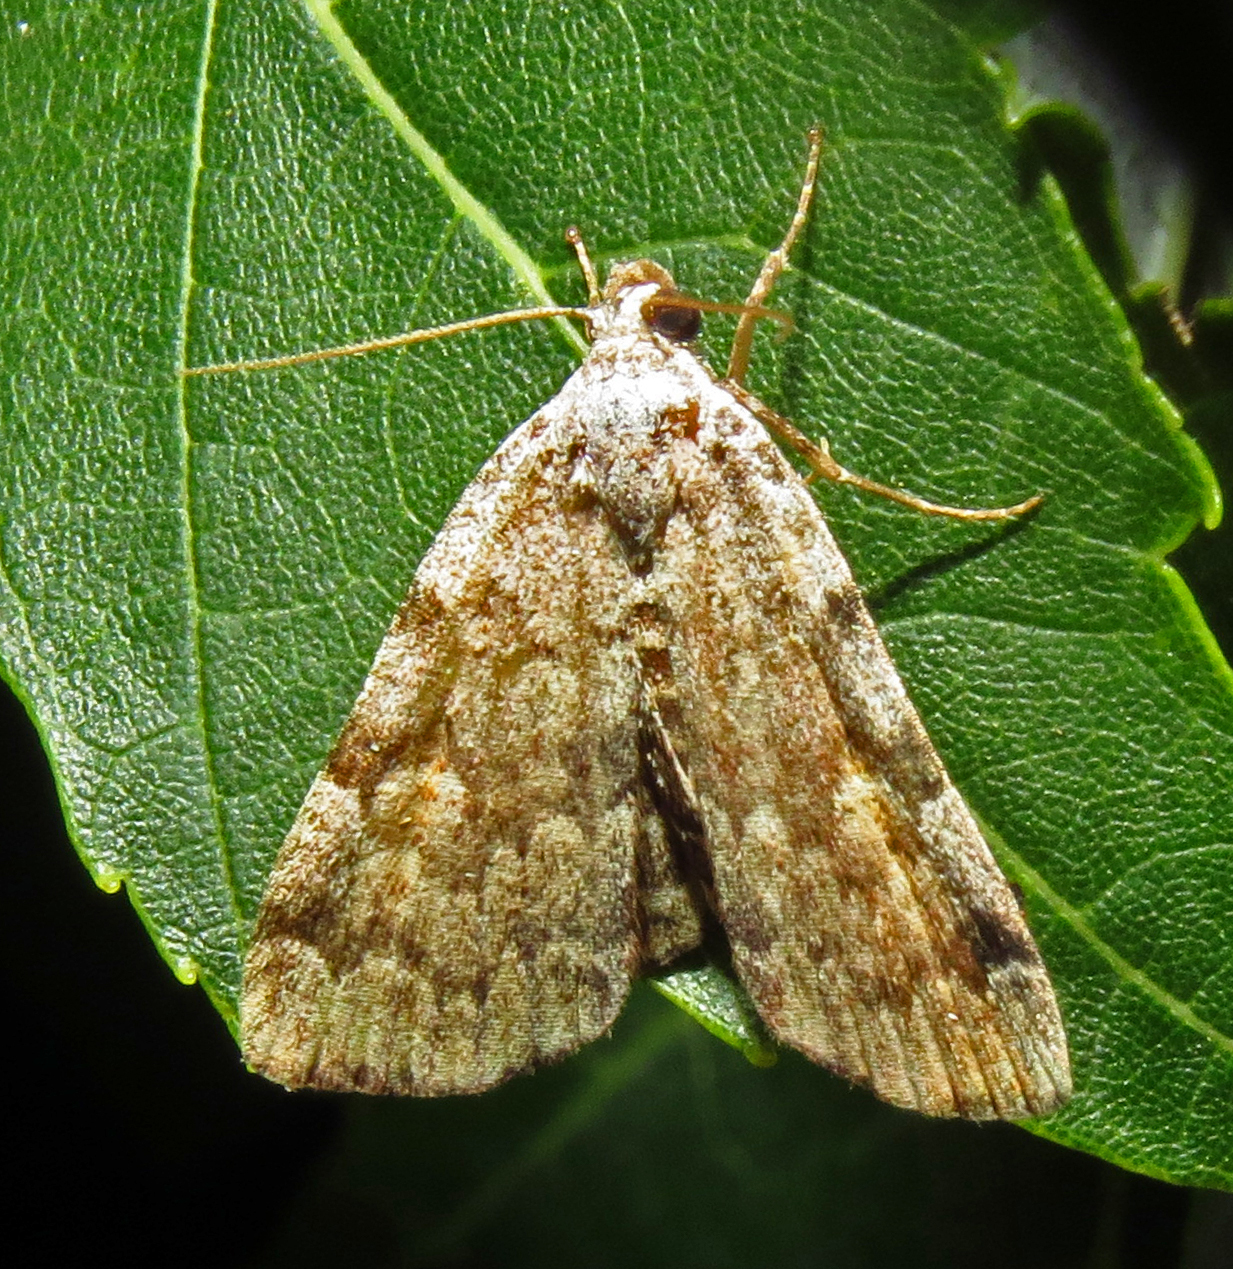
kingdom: Animalia
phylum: Arthropoda
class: Insecta
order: Lepidoptera
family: Erebidae
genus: Idia
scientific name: Idia americalis
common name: American idia moth
